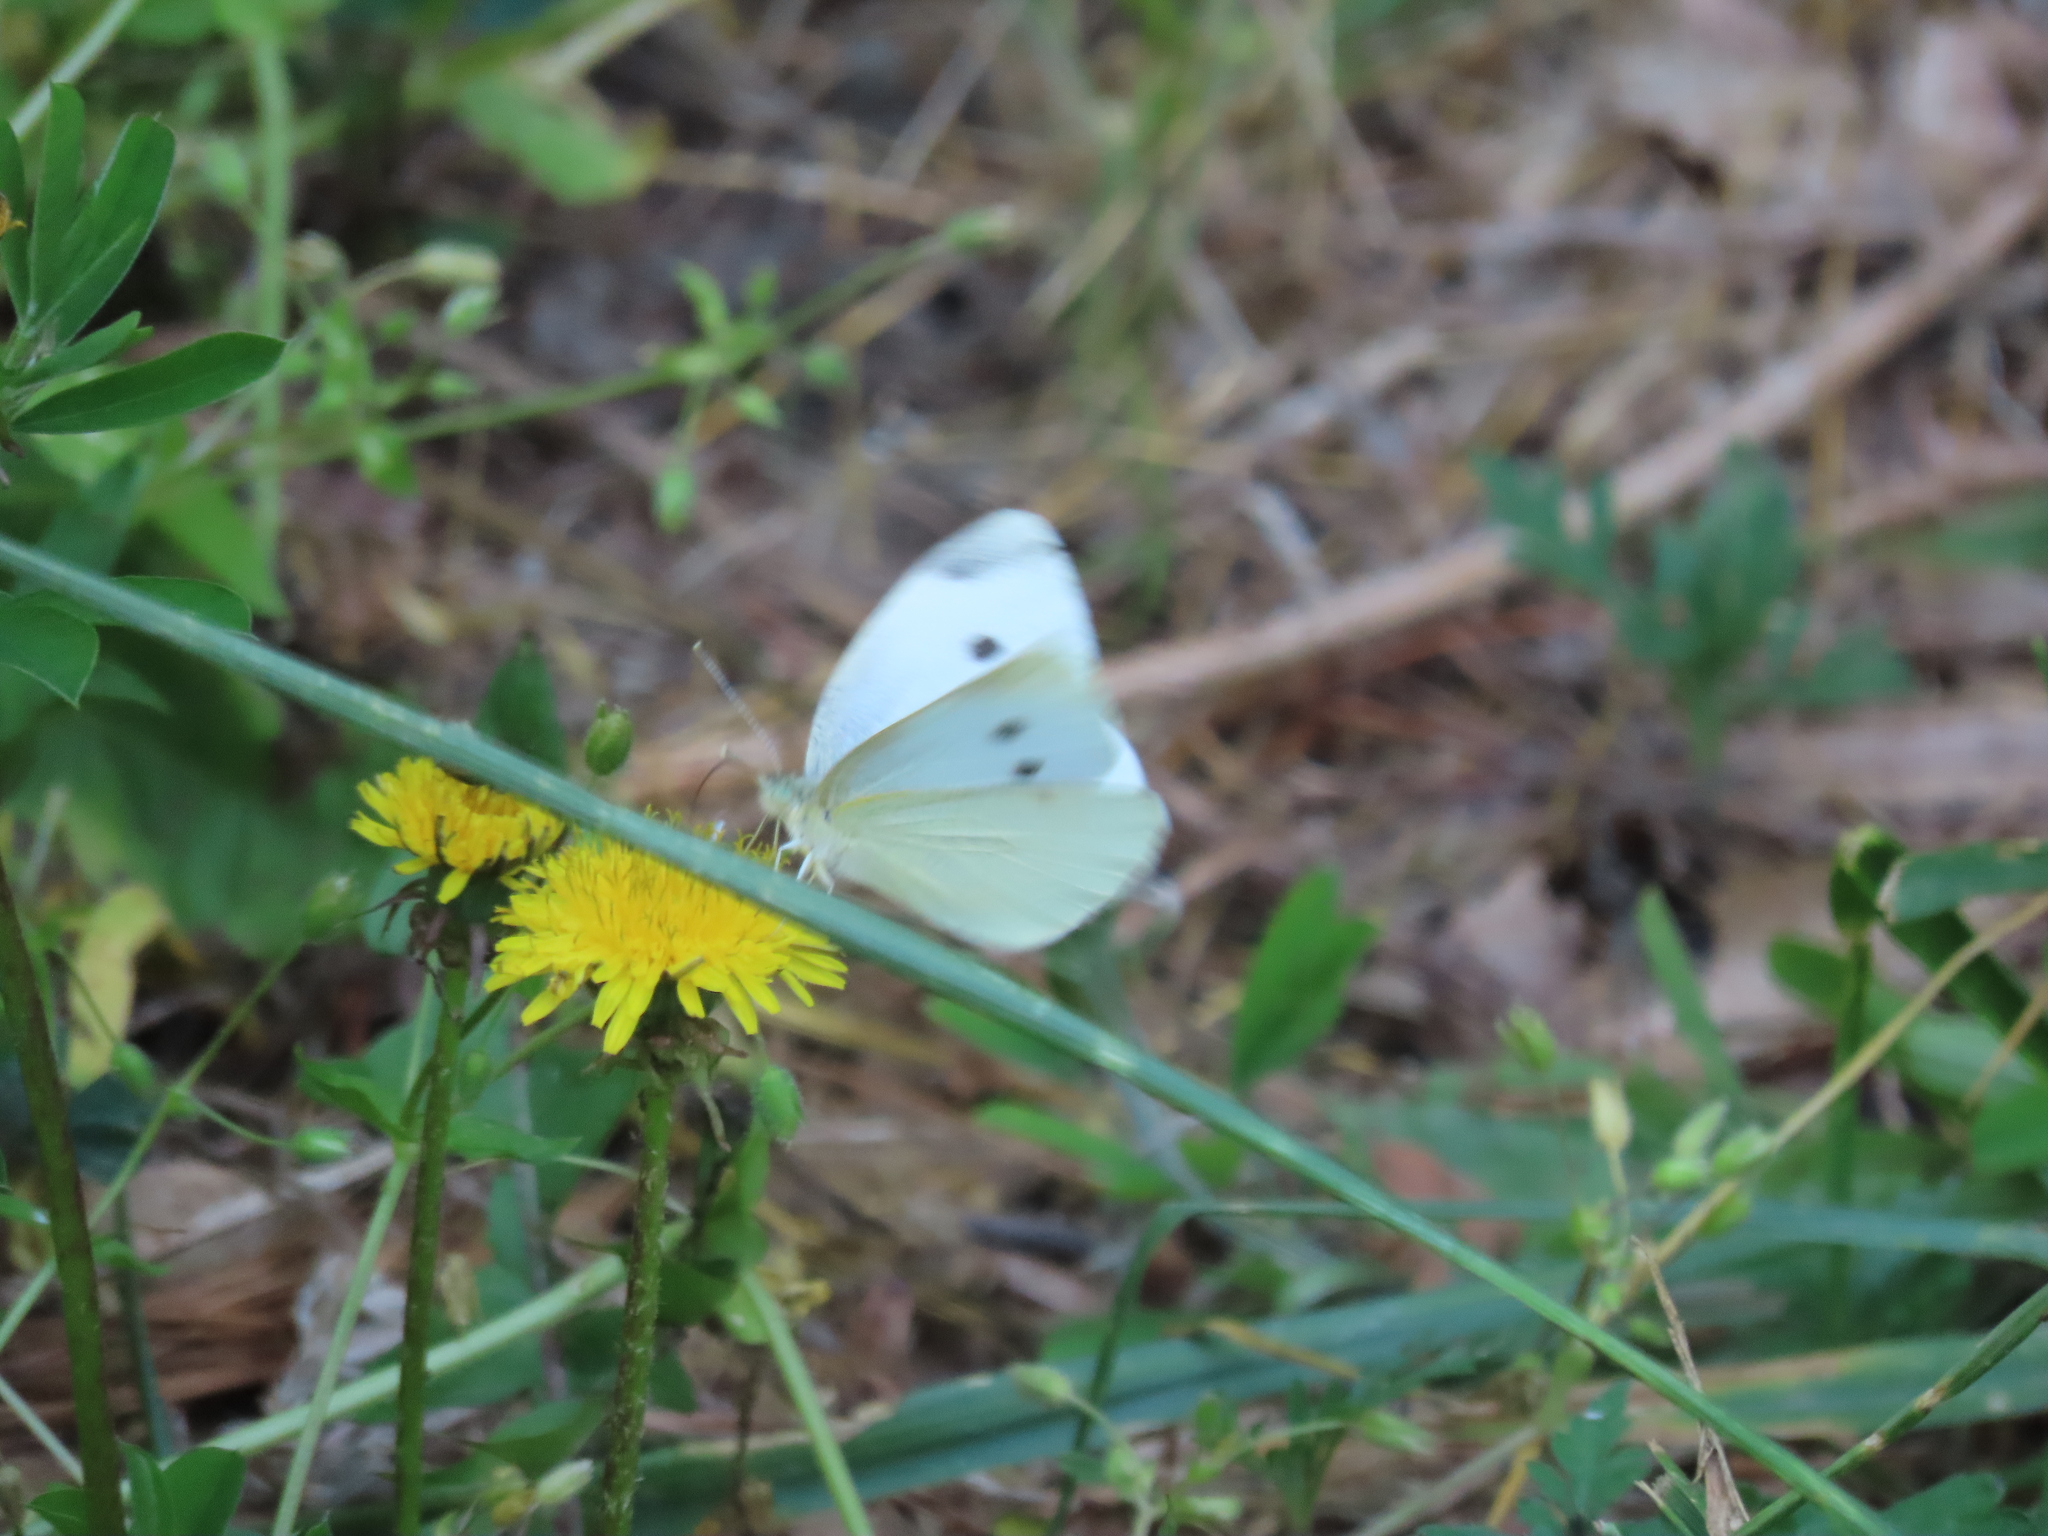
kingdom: Animalia
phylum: Arthropoda
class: Insecta
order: Lepidoptera
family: Pieridae
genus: Pieris
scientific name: Pieris rapae
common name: Small white
